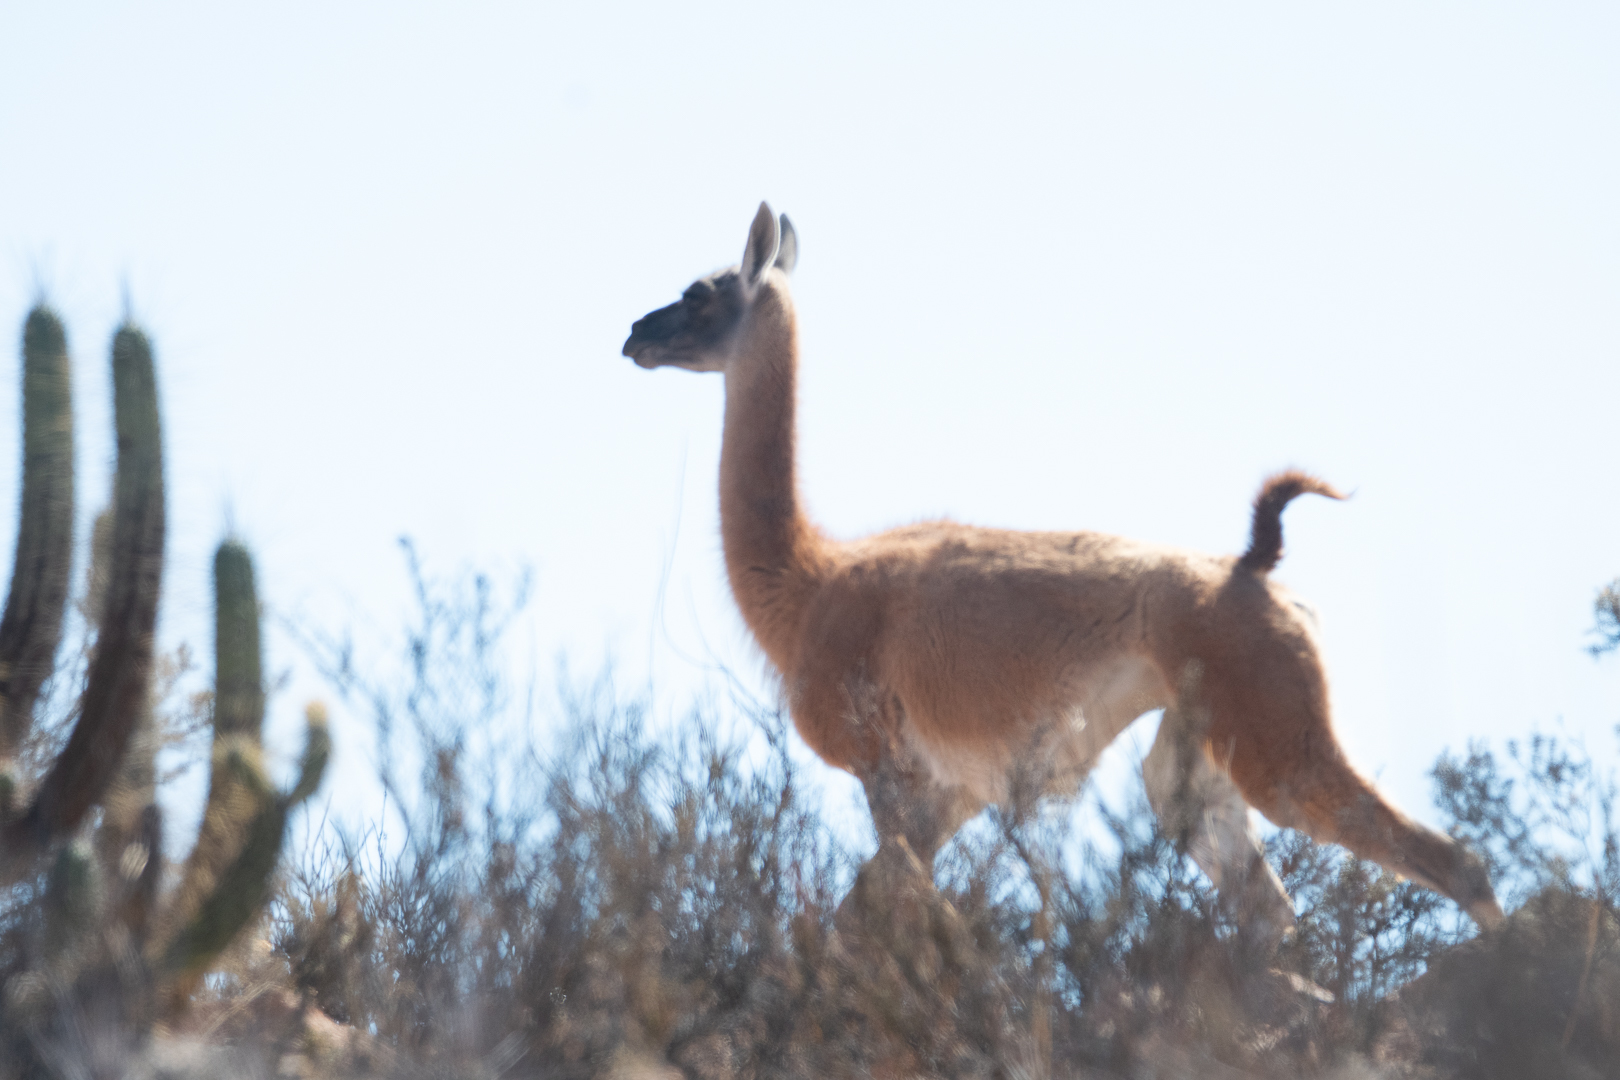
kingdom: Animalia
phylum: Chordata
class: Mammalia
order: Artiodactyla
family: Camelidae
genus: Lama
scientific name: Lama glama
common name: Llama
